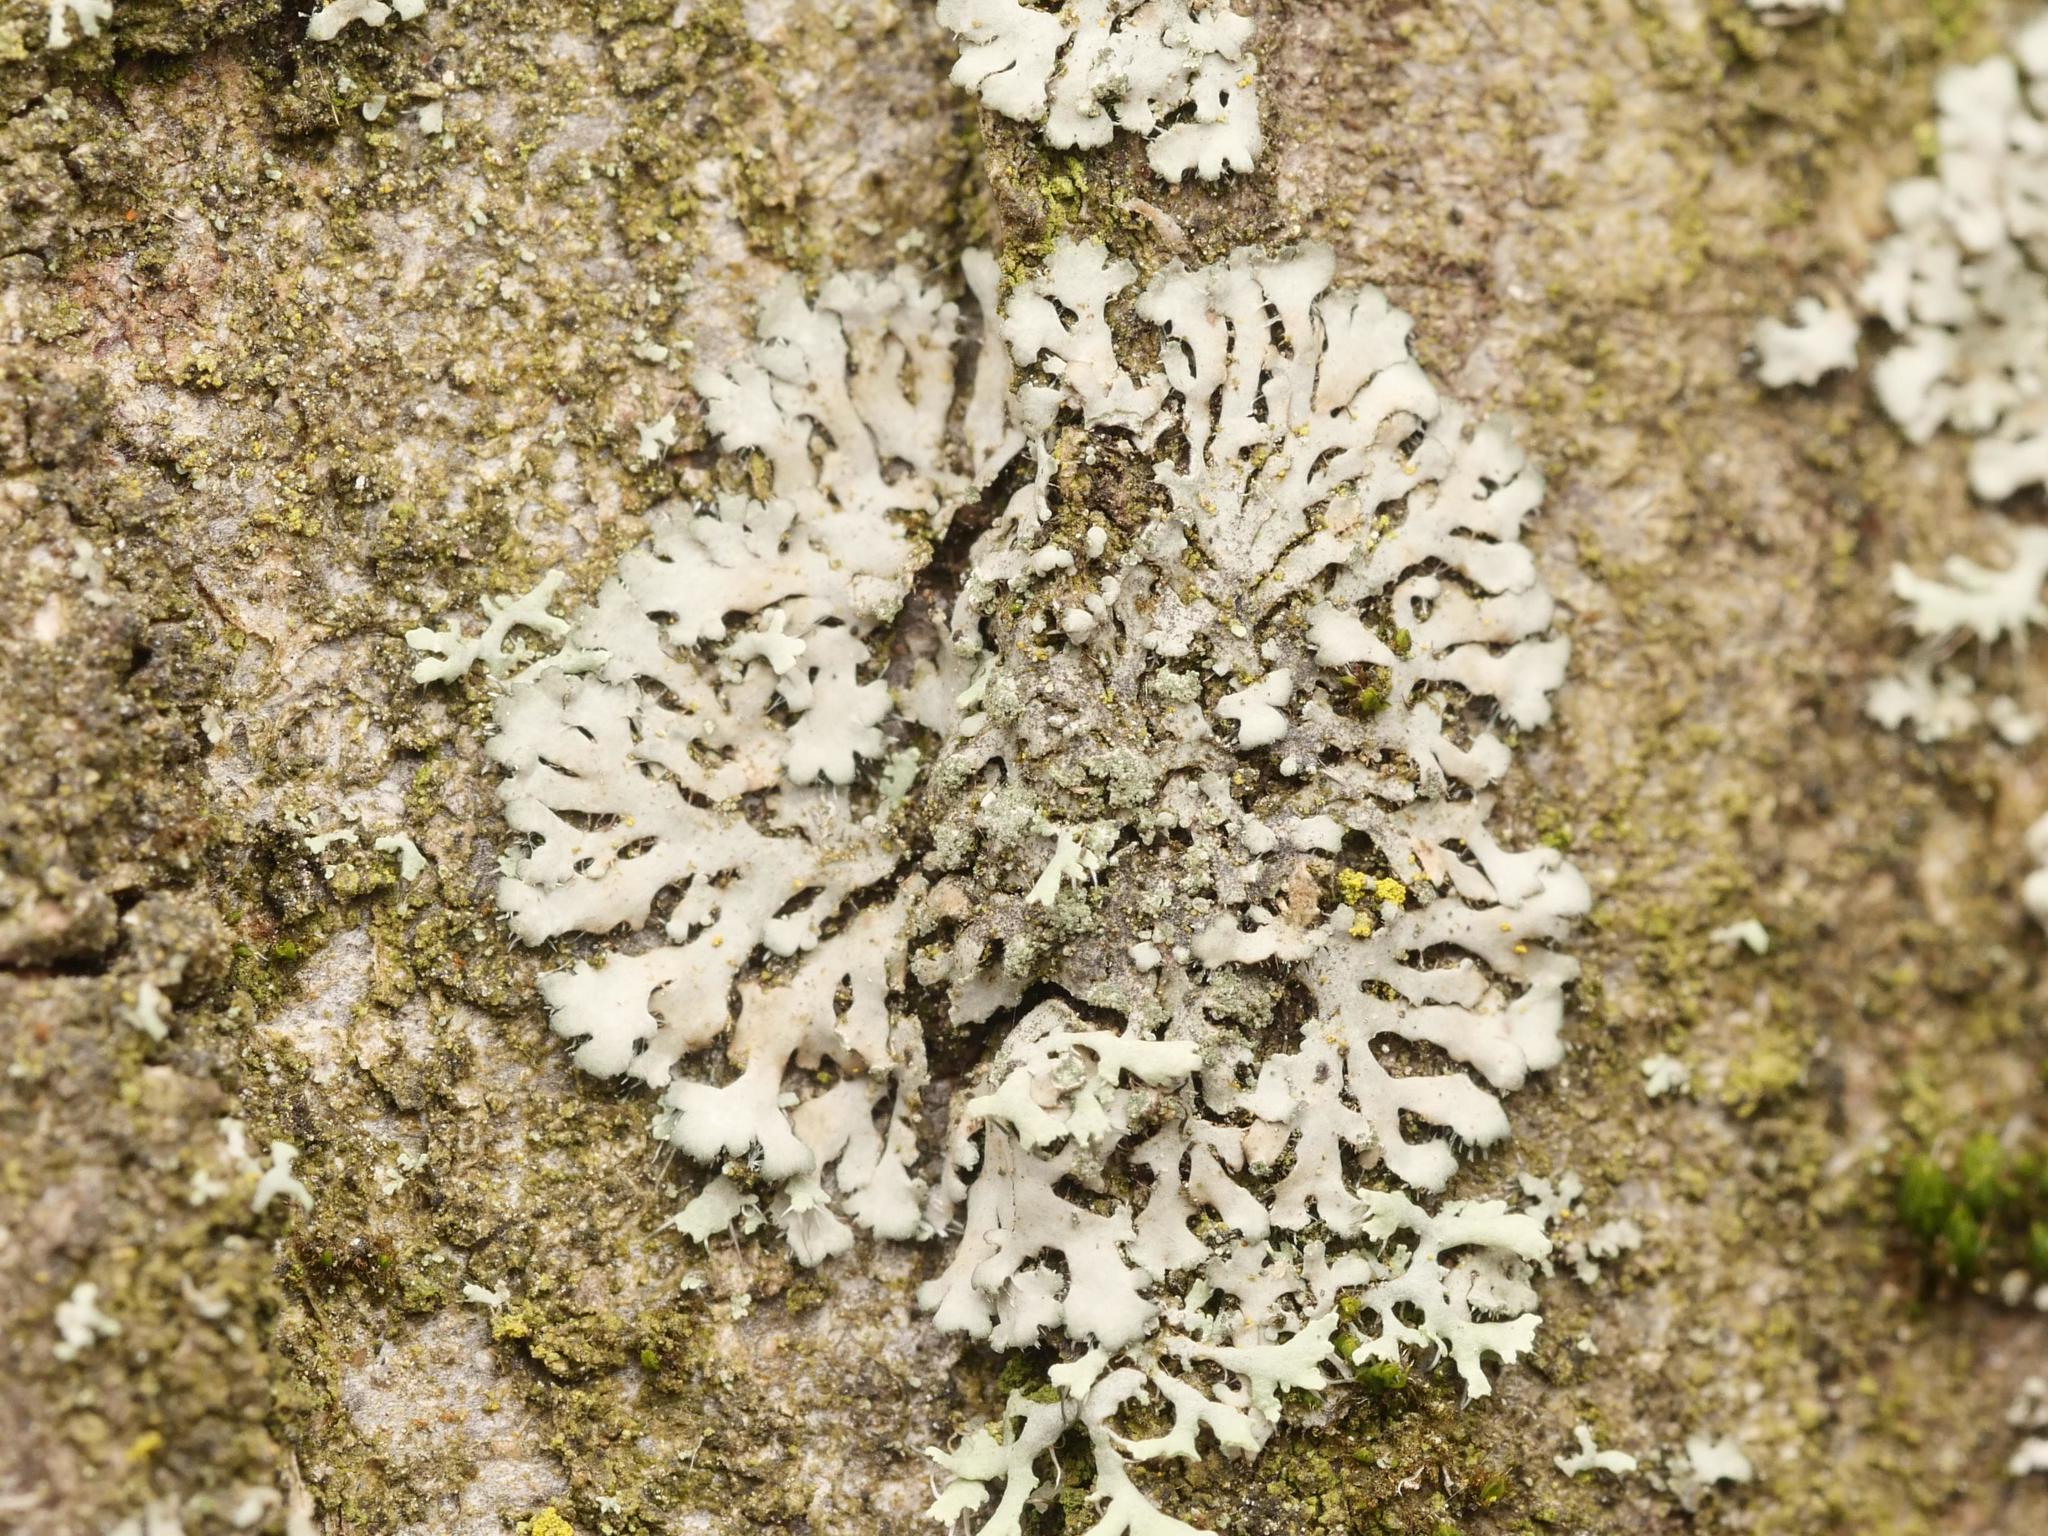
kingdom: Fungi
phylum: Ascomycota
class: Lecanoromycetes
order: Caliciales
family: Physciaceae
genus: Phaeophyscia
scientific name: Phaeophyscia orbicularis
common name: Mealy shadow lichen
